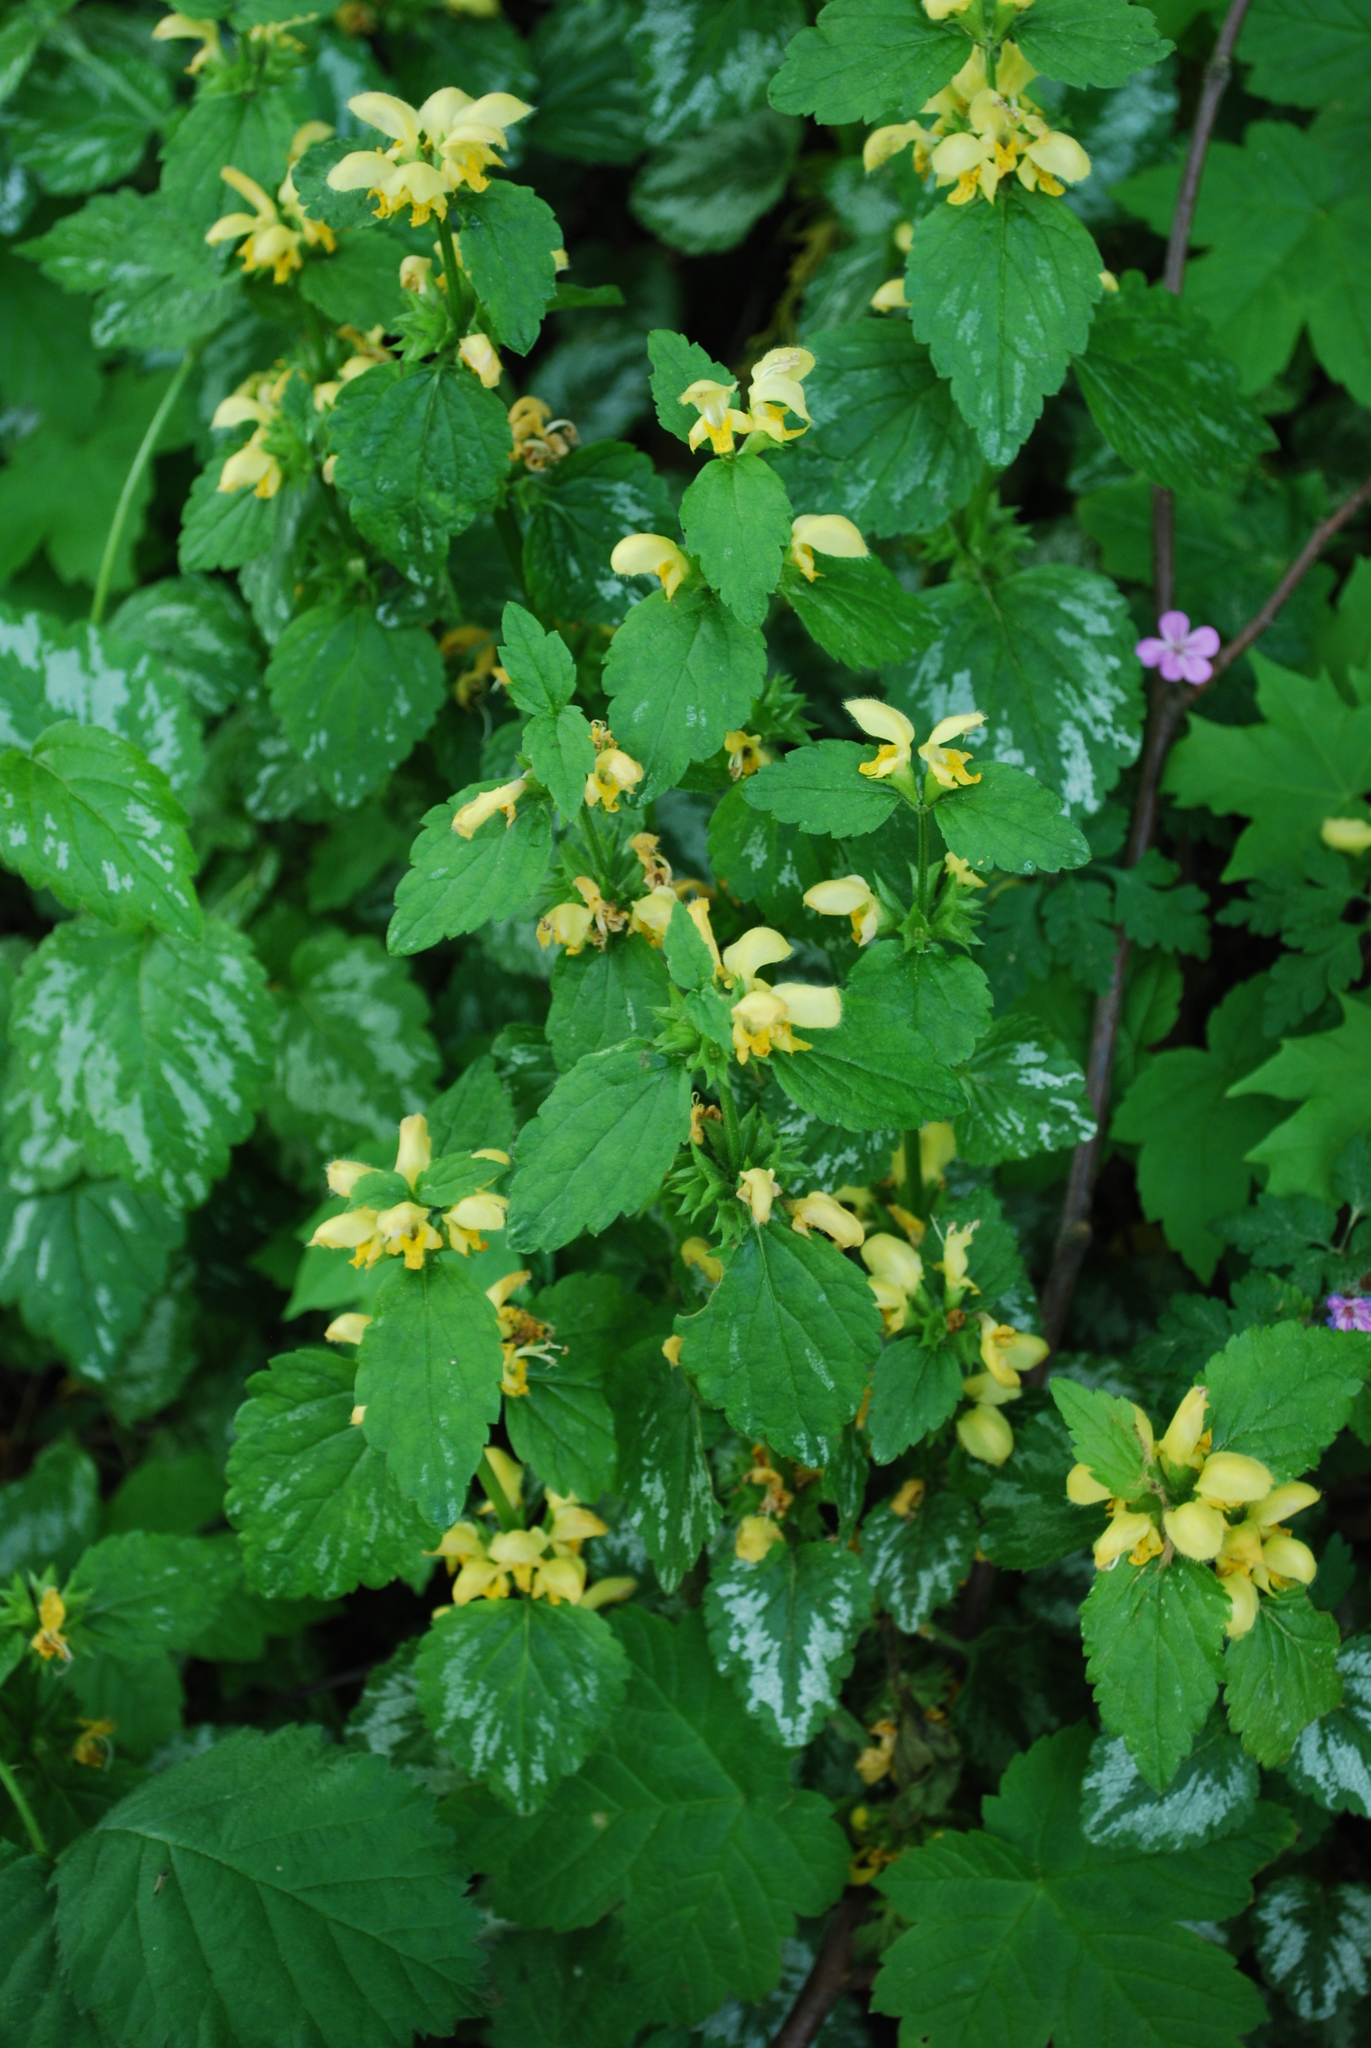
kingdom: Plantae
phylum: Tracheophyta
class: Magnoliopsida
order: Lamiales
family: Lamiaceae
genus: Lamium
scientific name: Lamium galeobdolon
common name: Yellow archangel
